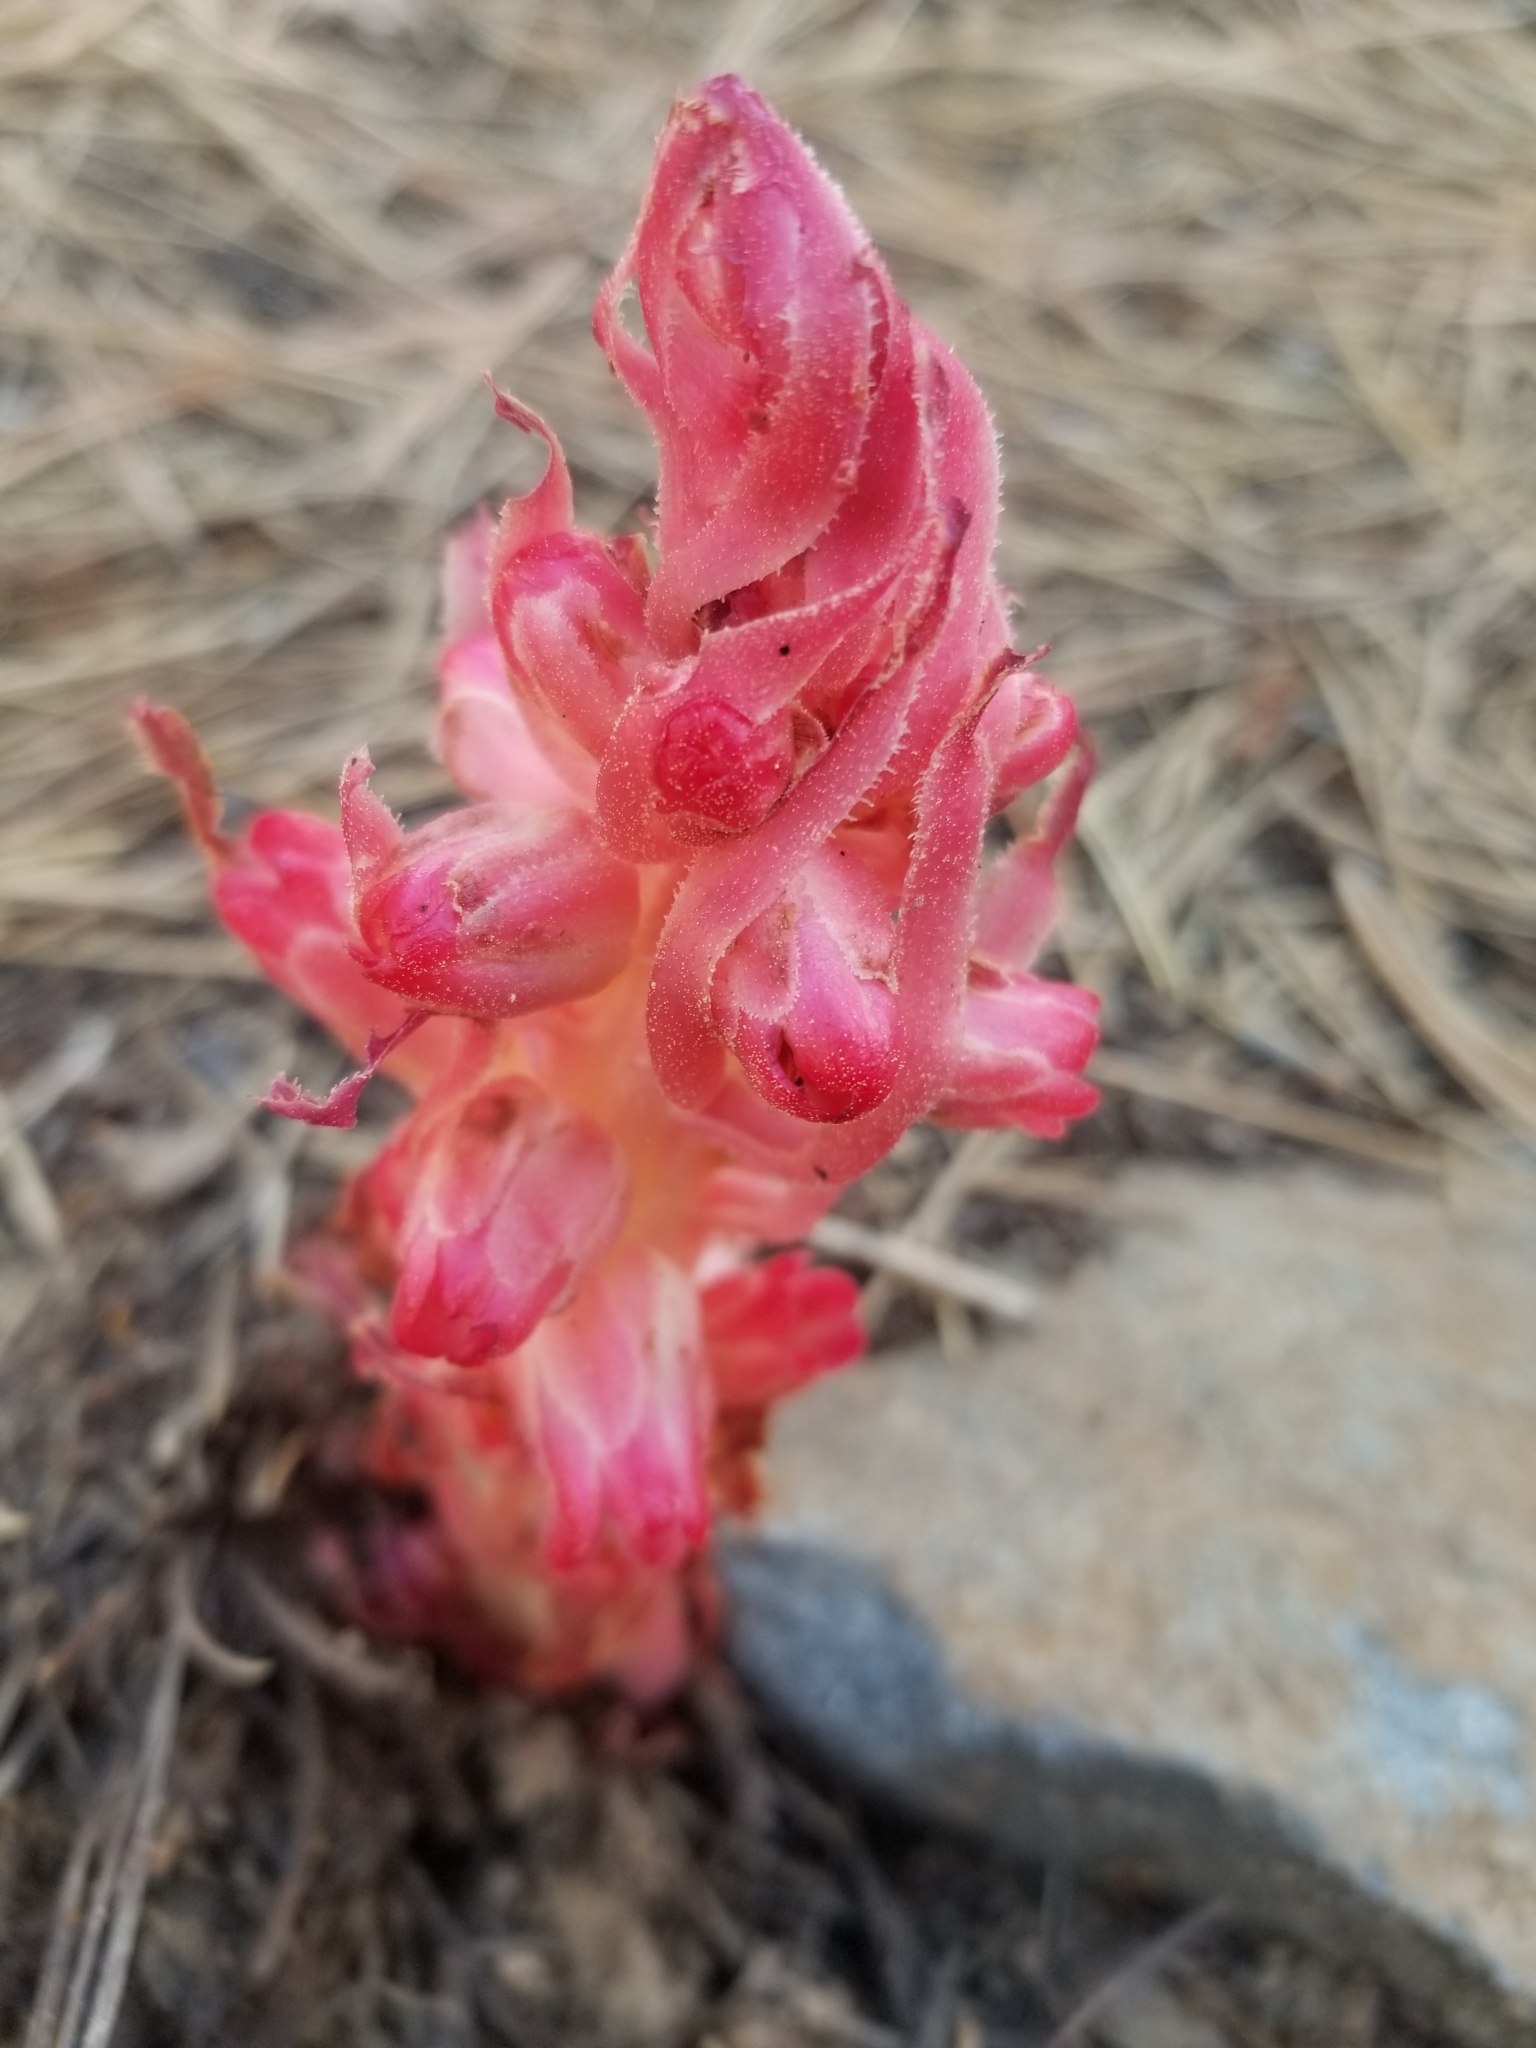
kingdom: Plantae
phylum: Tracheophyta
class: Magnoliopsida
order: Ericales
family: Ericaceae
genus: Sarcodes
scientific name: Sarcodes sanguinea
